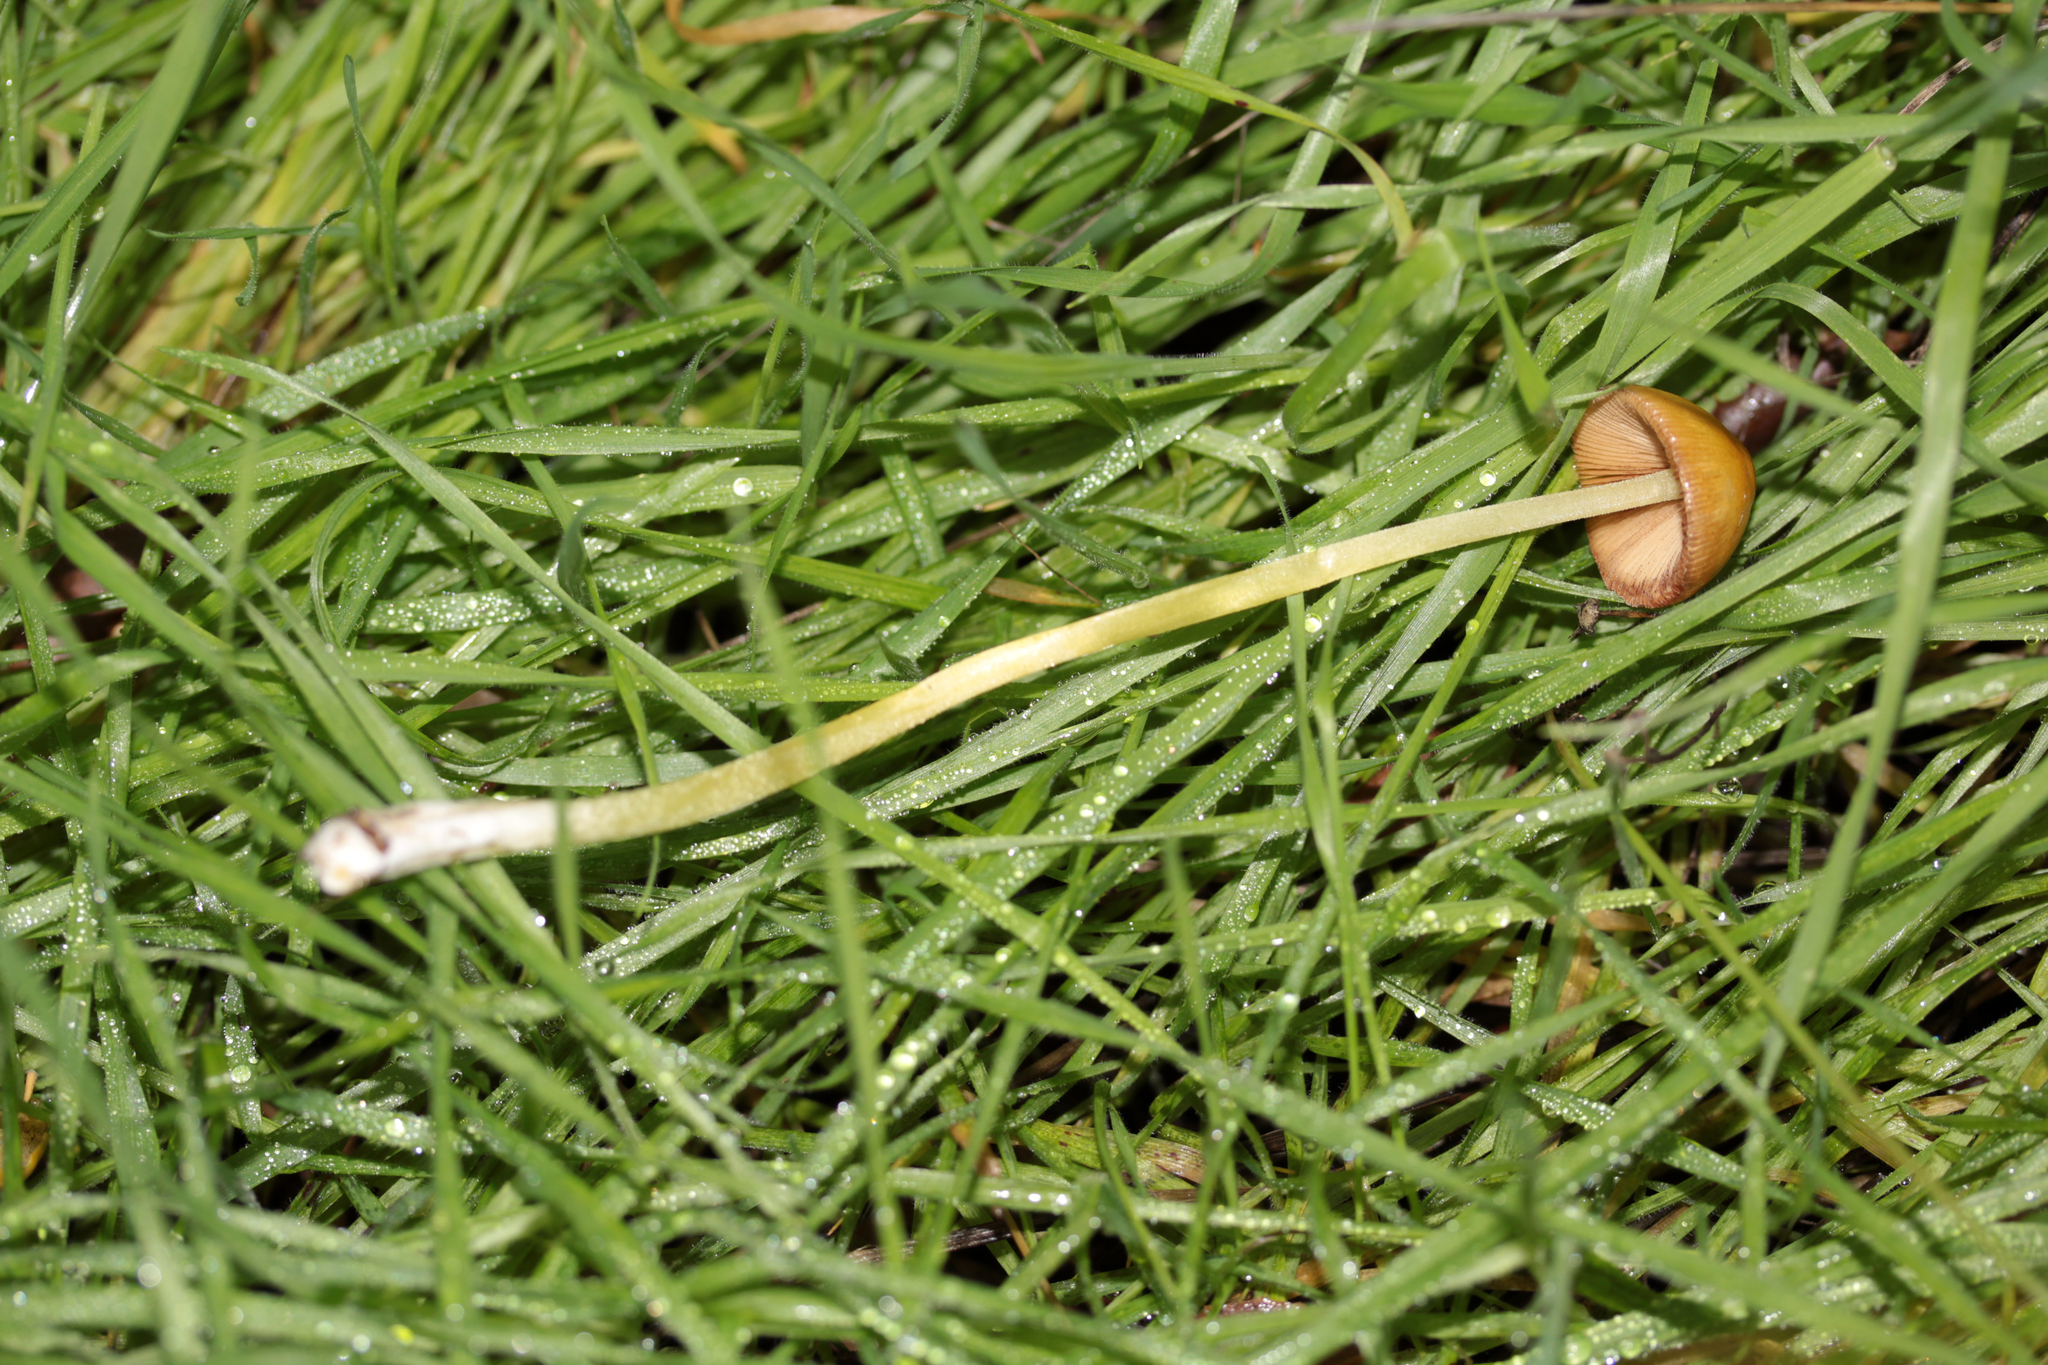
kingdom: Fungi
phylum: Basidiomycota
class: Agaricomycetes
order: Agaricales
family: Bolbitiaceae
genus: Bolbitius
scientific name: Bolbitius titubans
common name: Yellow fieldcap
